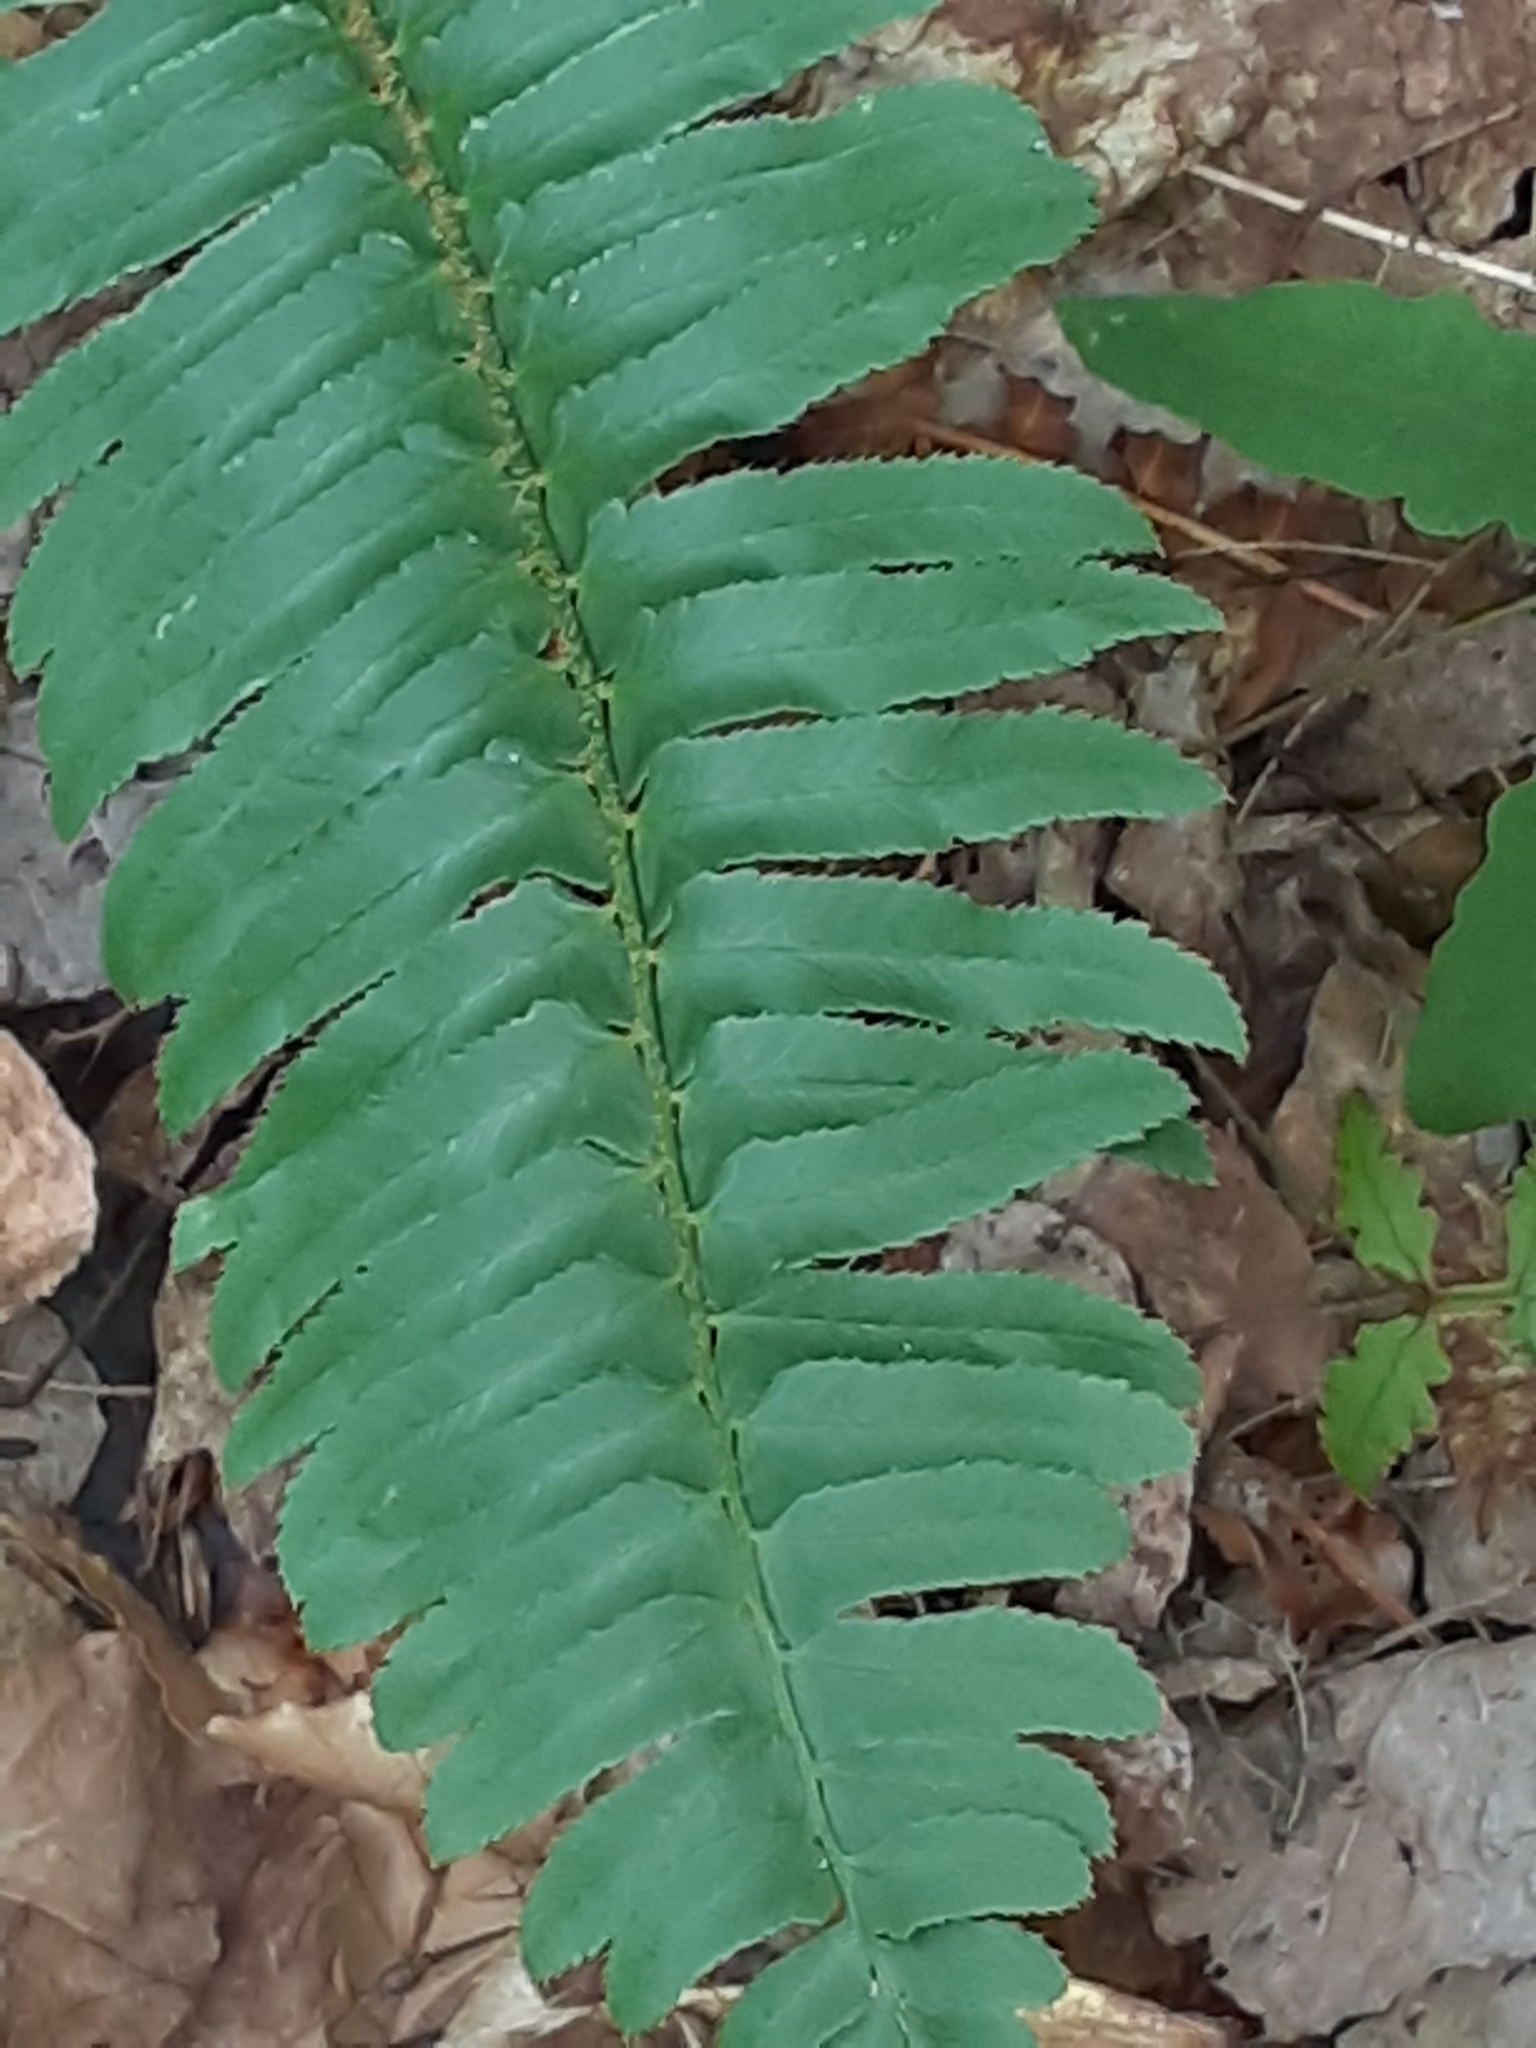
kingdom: Plantae
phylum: Tracheophyta
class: Polypodiopsida
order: Polypodiales
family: Dryopteridaceae
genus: Polystichum
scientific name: Polystichum acrostichoides
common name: Christmas fern
